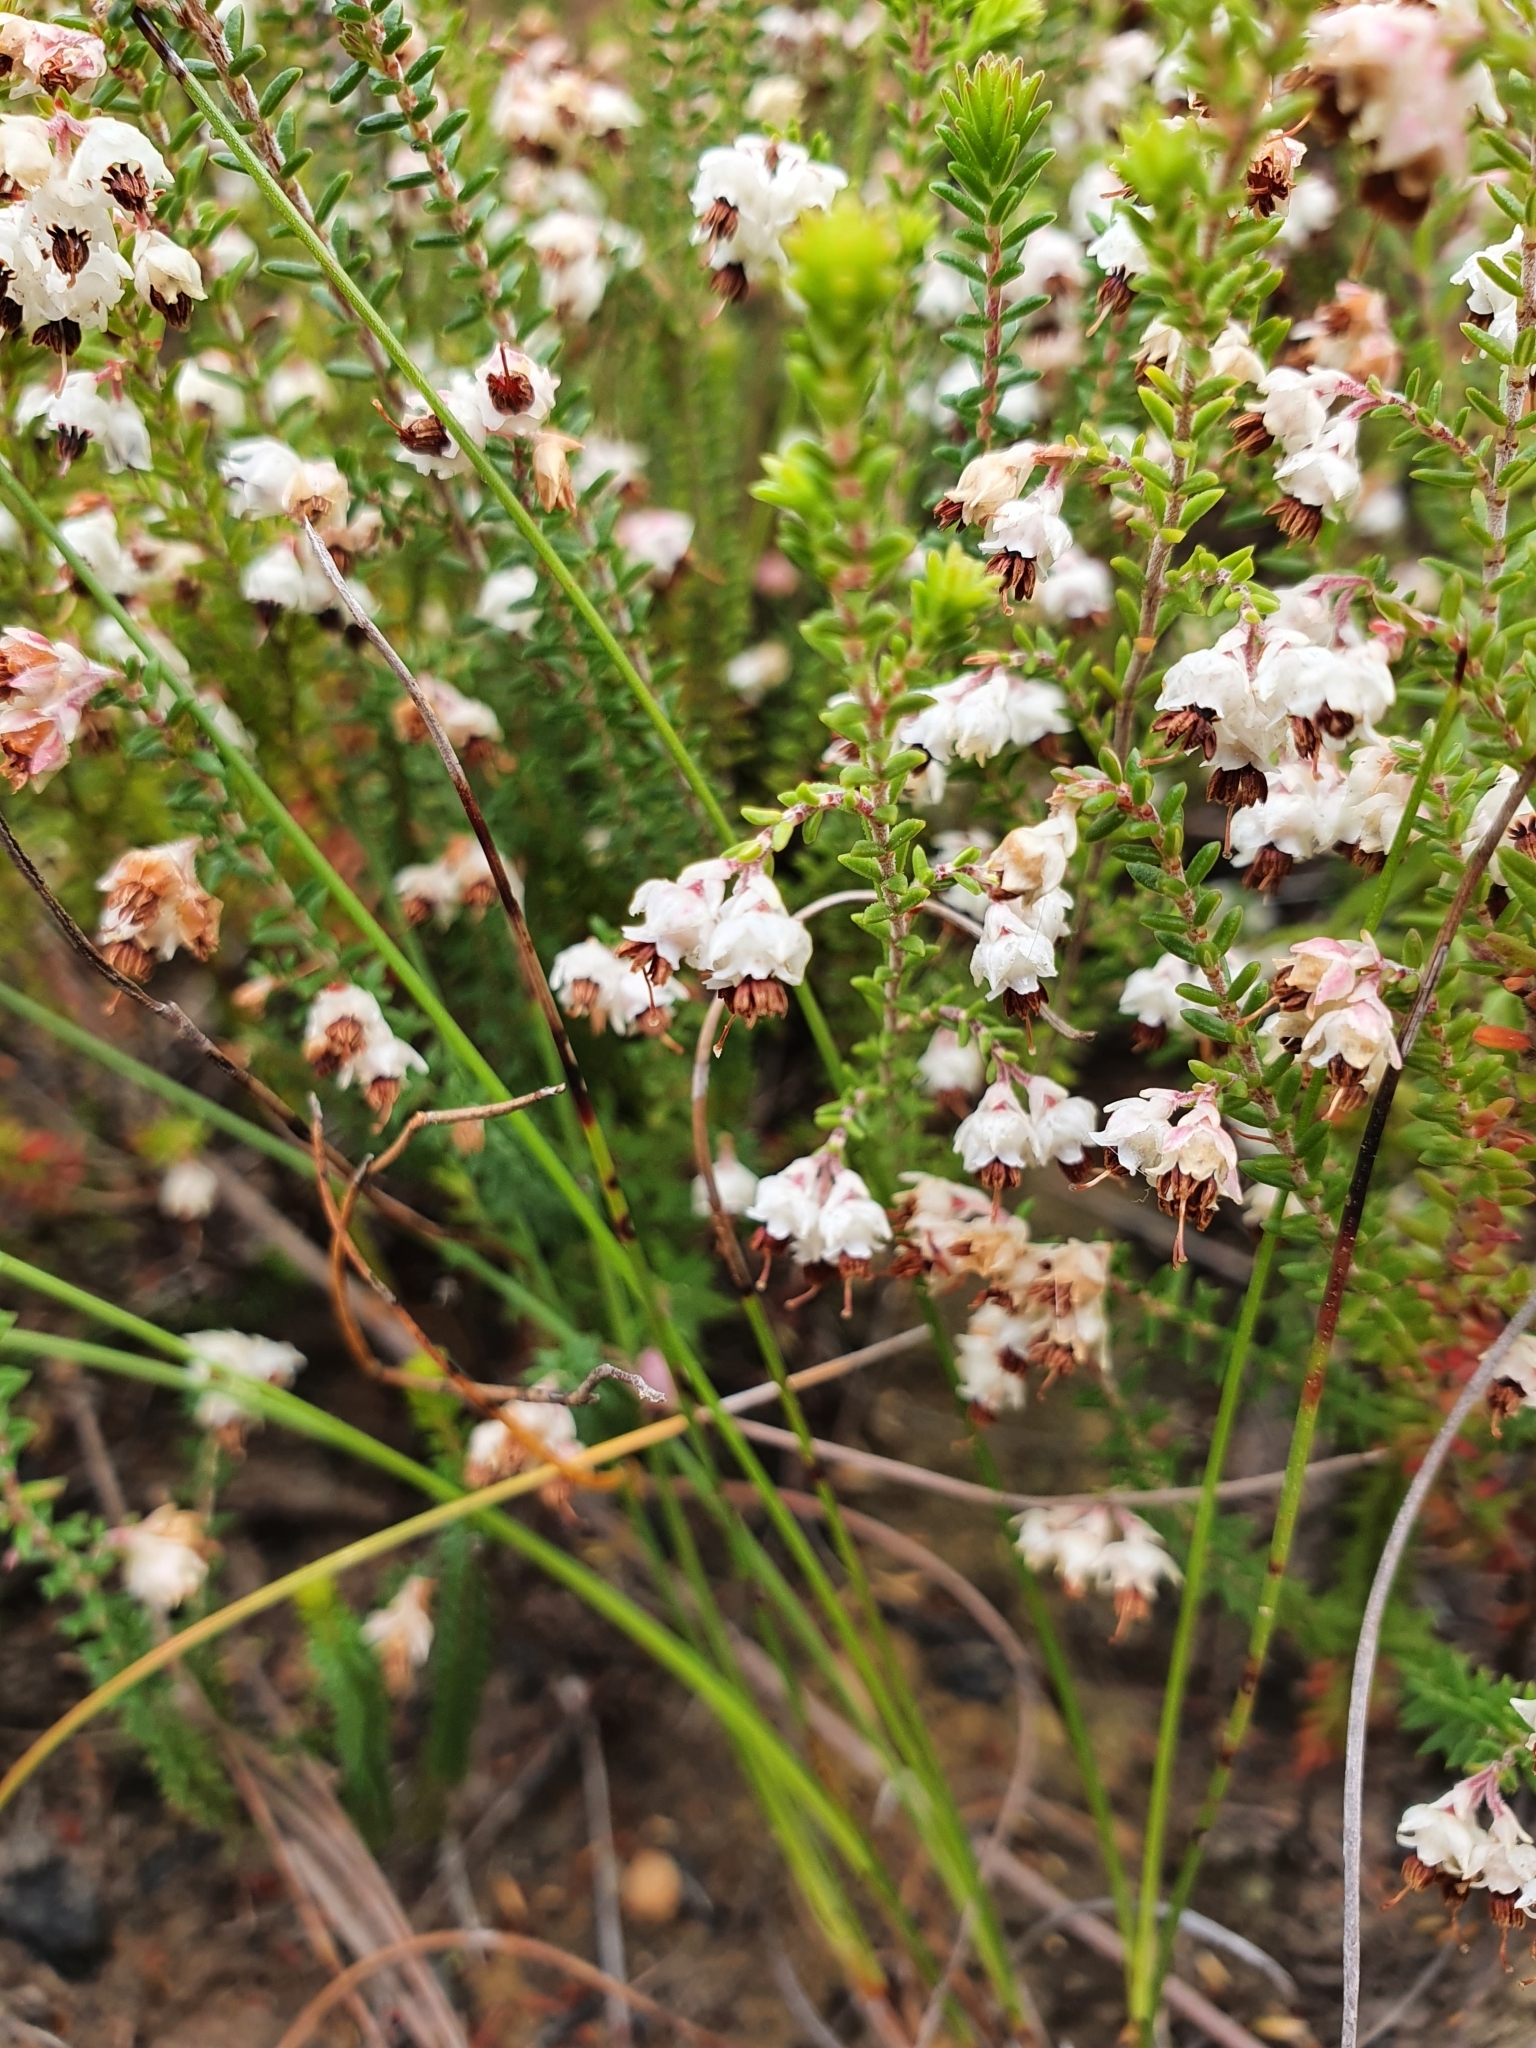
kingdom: Plantae
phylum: Tracheophyta
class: Magnoliopsida
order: Ericales
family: Ericaceae
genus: Erica
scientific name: Erica triceps
